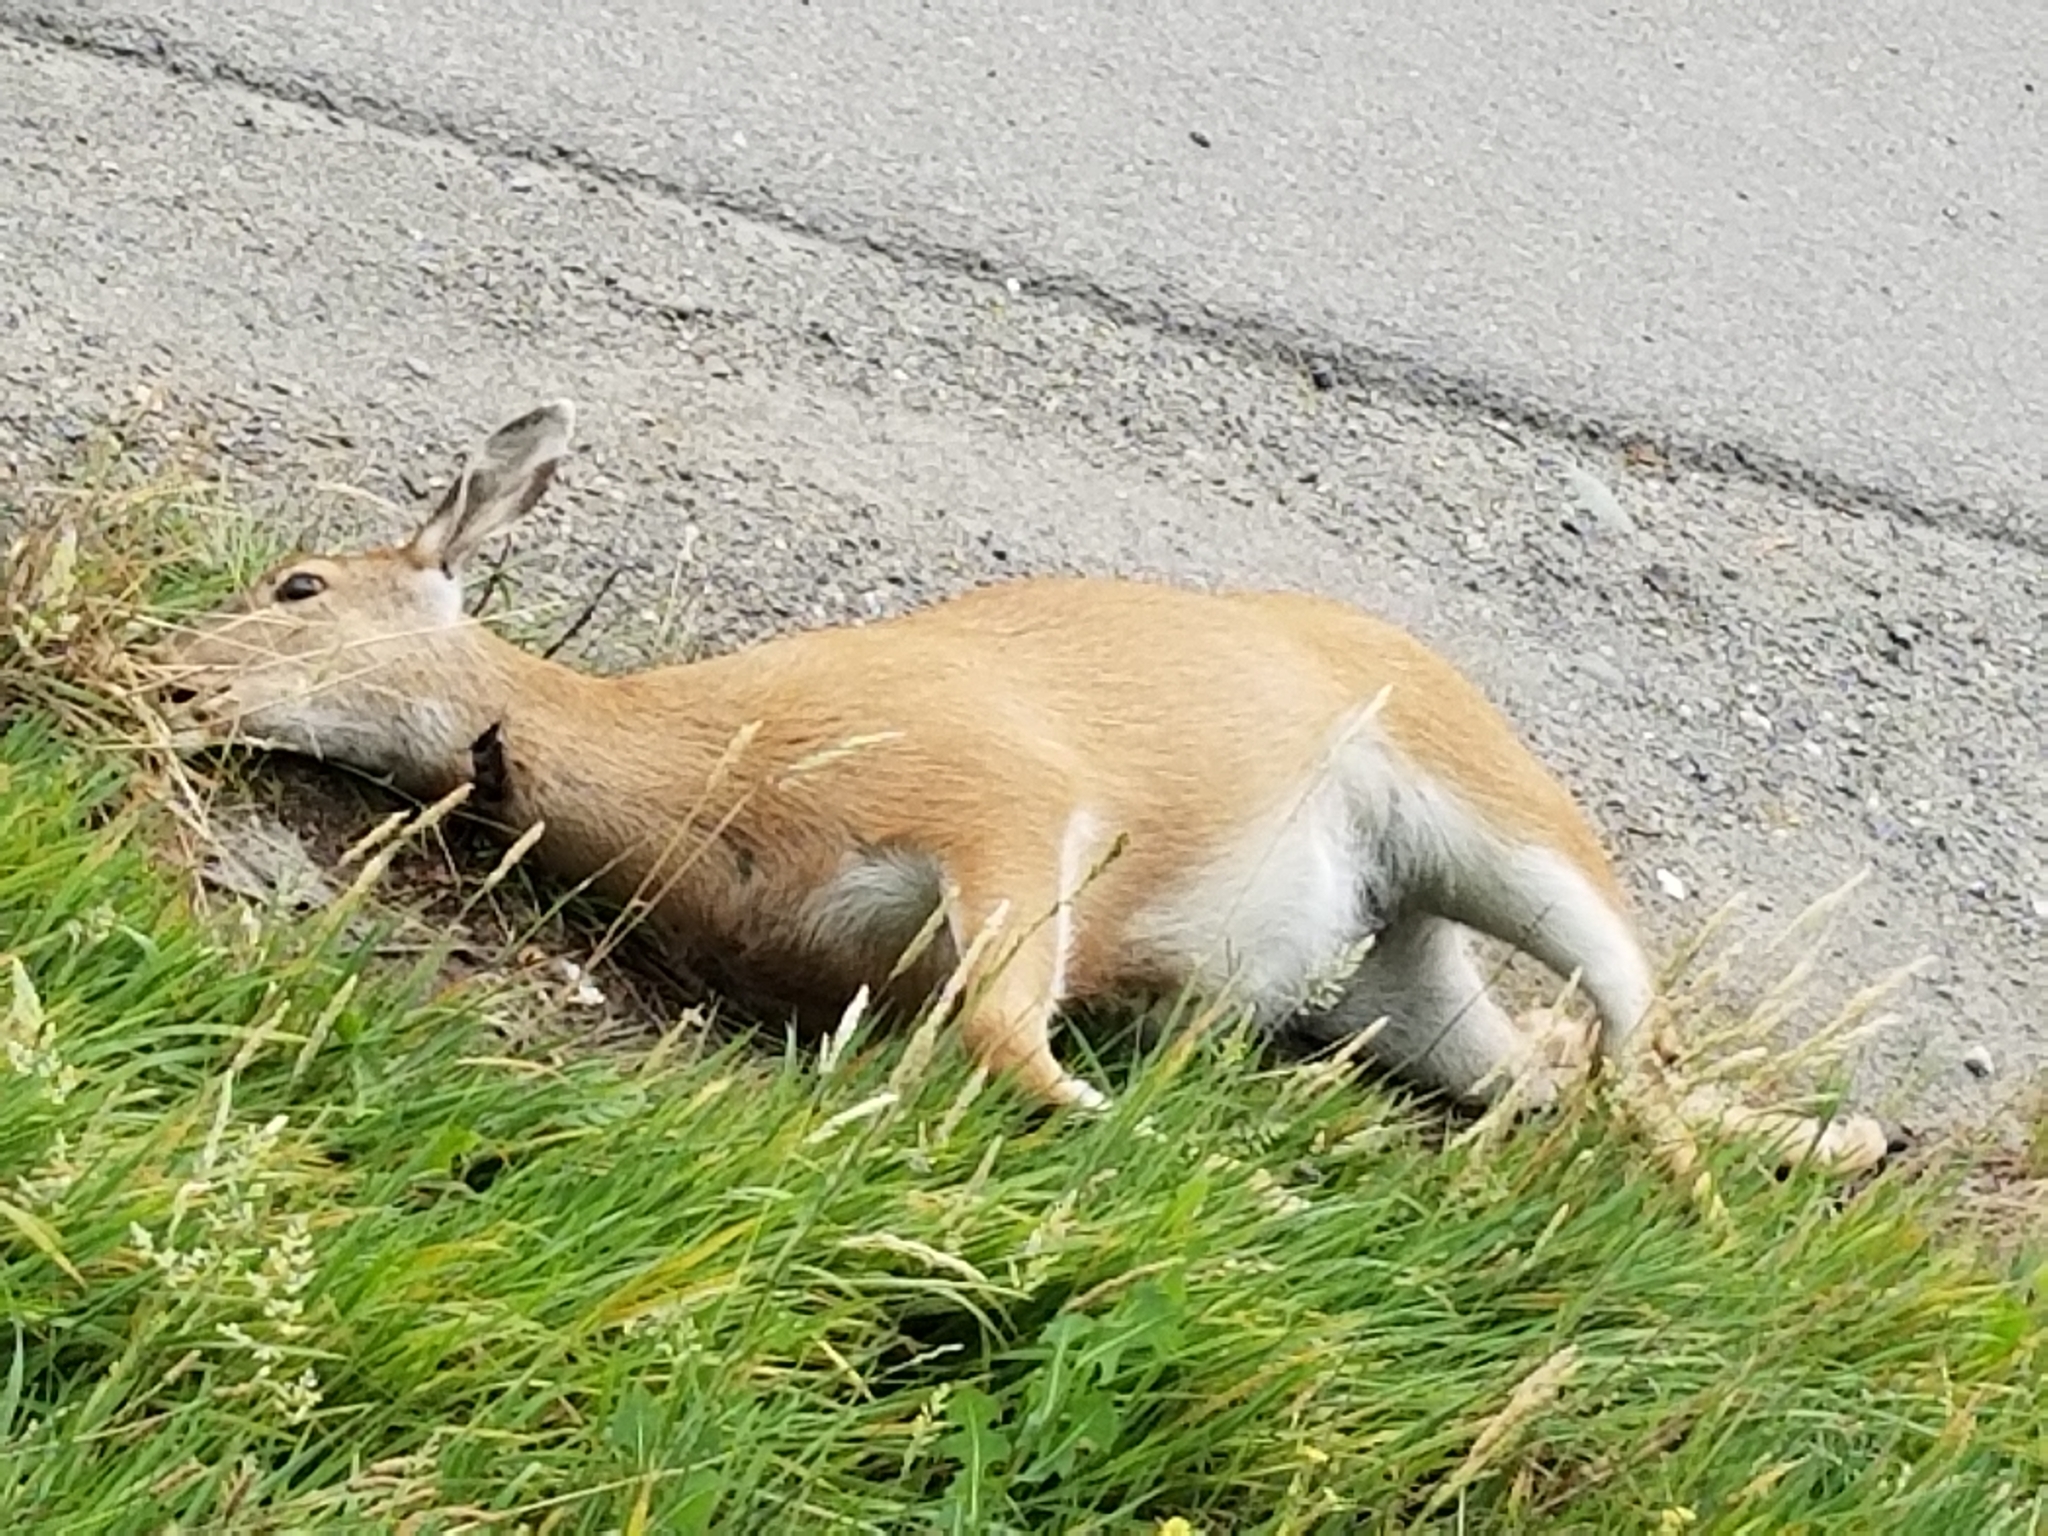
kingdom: Animalia
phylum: Chordata
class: Mammalia
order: Artiodactyla
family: Cervidae
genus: Odocoileus
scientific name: Odocoileus hemionus
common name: Mule deer
